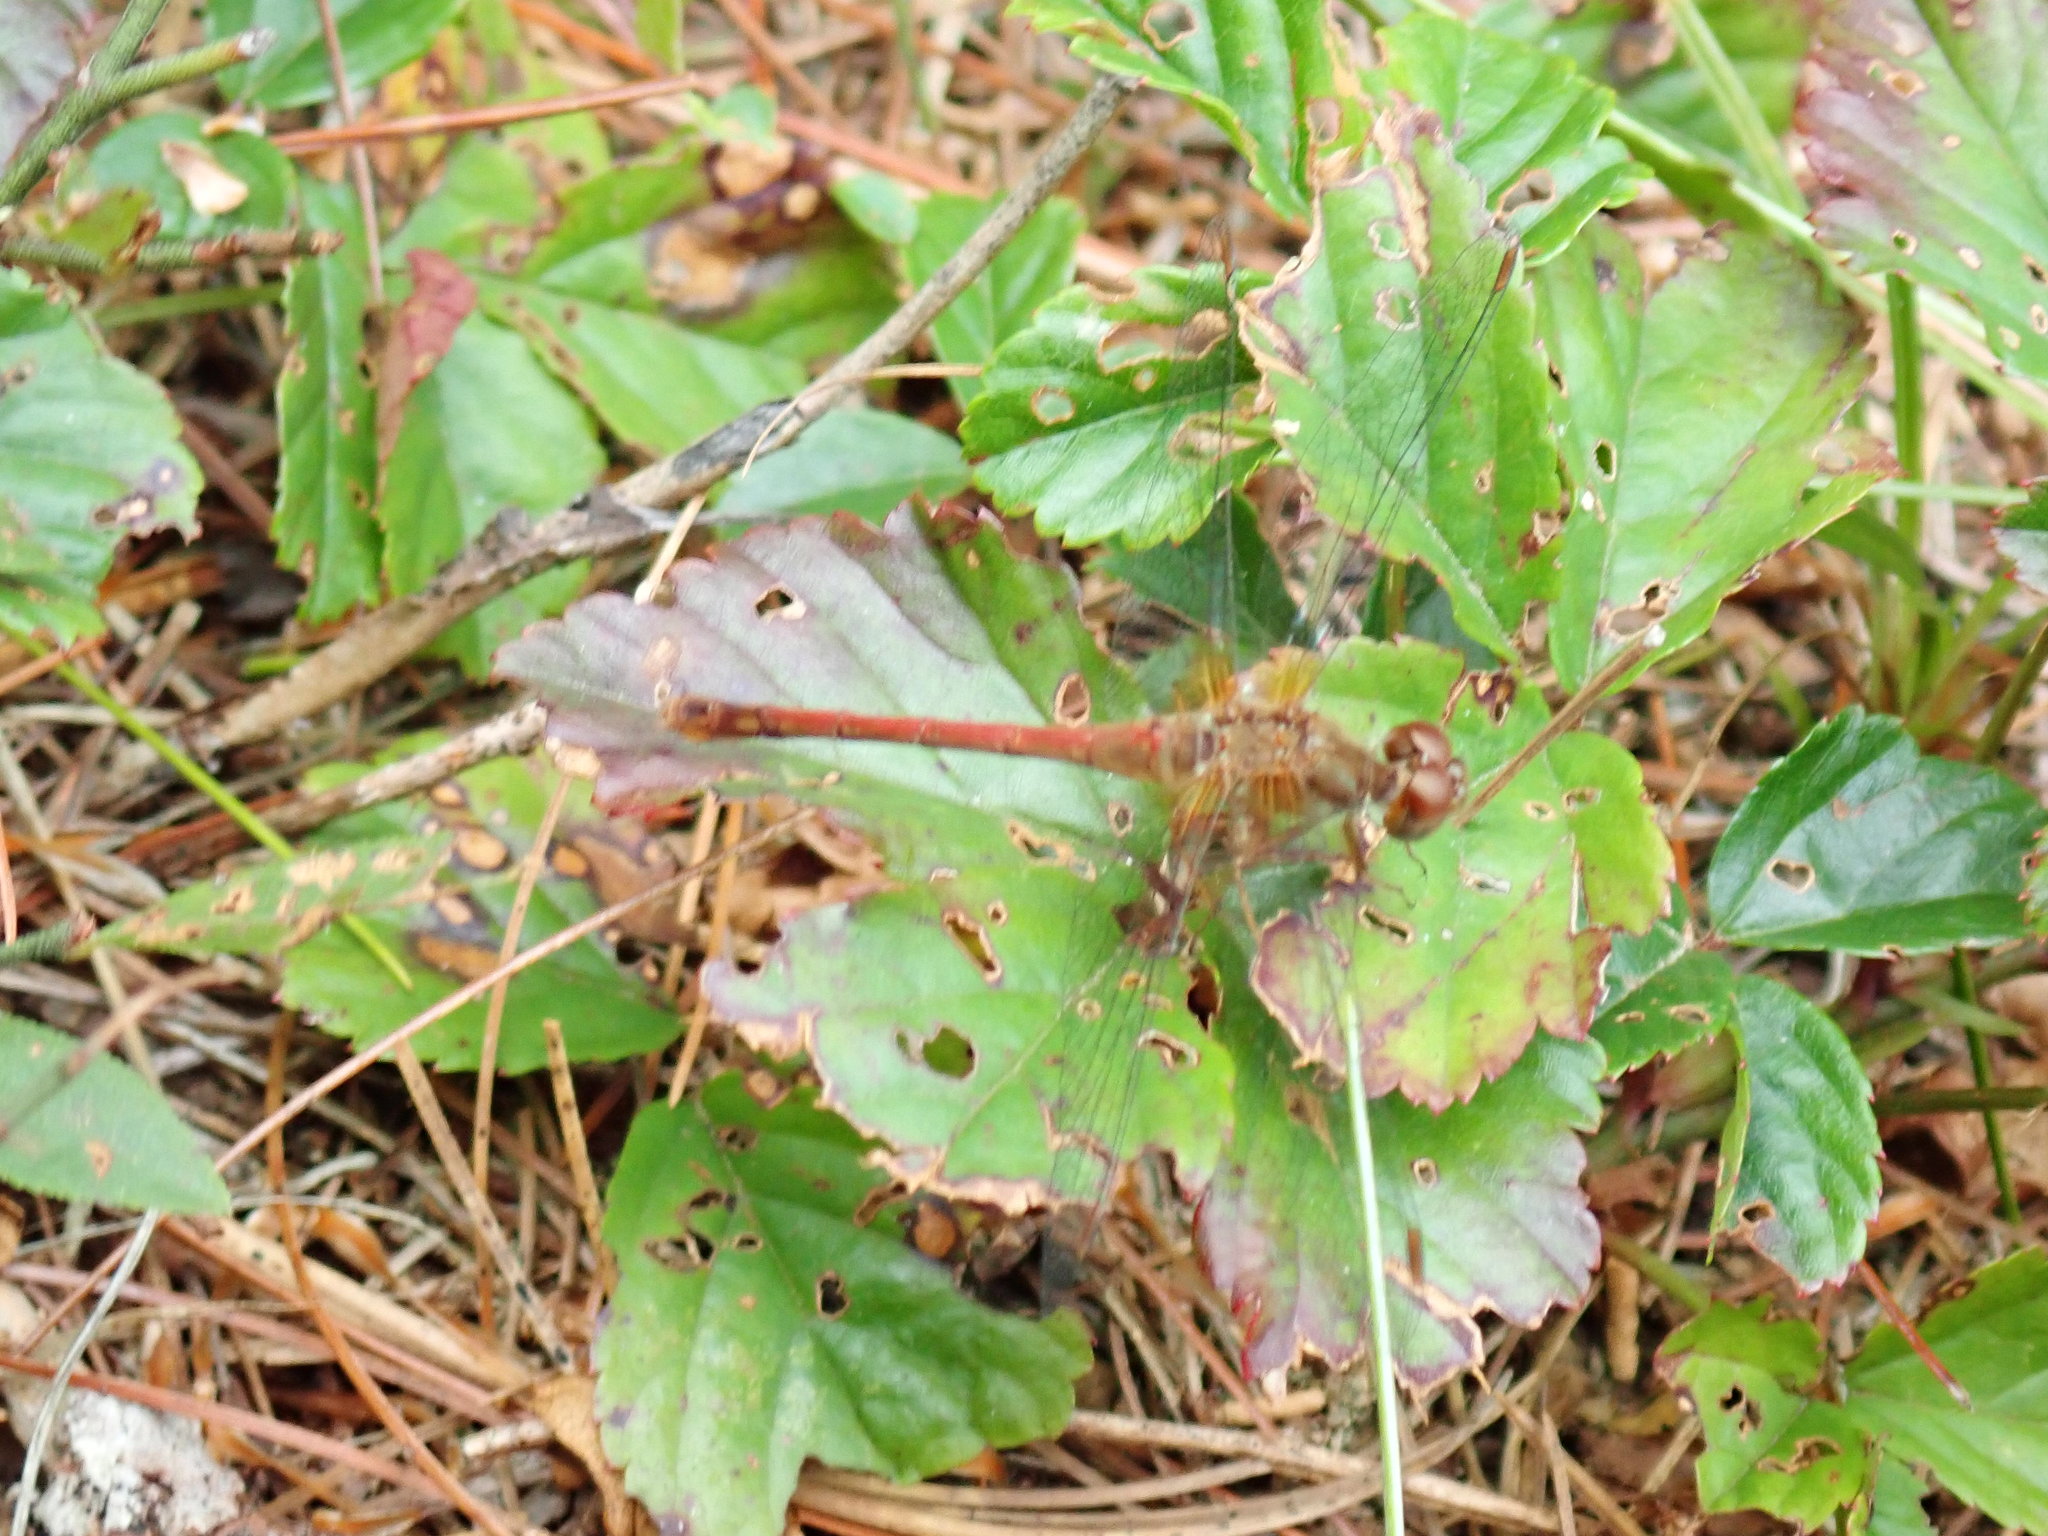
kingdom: Animalia
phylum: Arthropoda
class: Insecta
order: Odonata
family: Libellulidae
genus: Sympetrum
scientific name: Sympetrum vicinum
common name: Autumn meadowhawk
